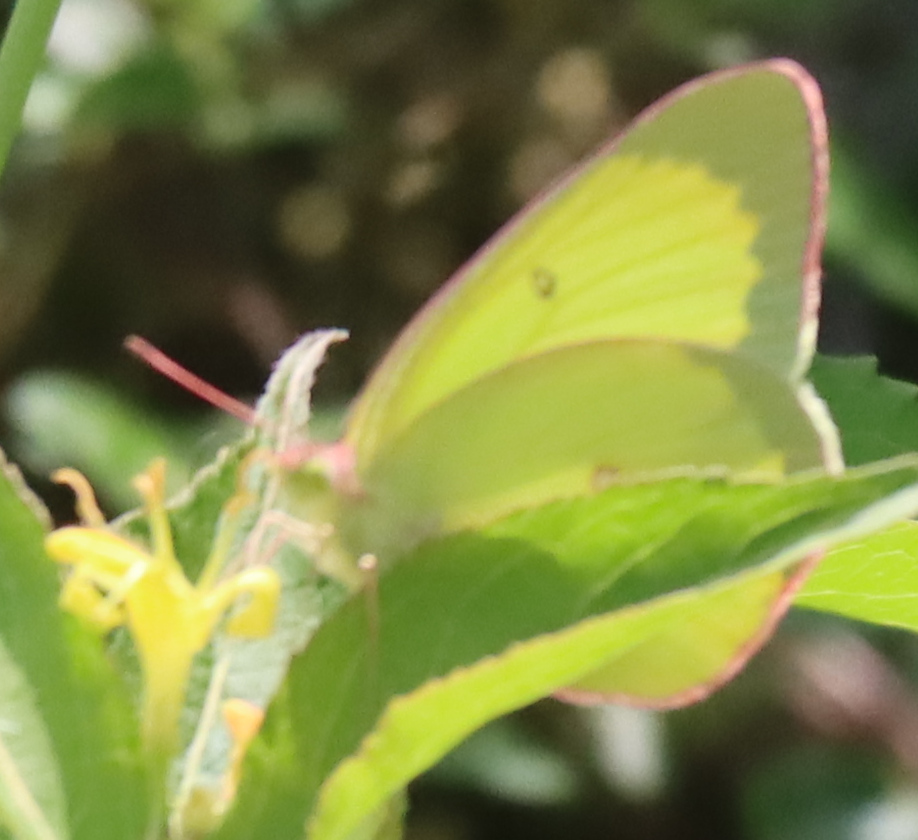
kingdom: Animalia
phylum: Arthropoda
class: Insecta
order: Lepidoptera
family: Pieridae
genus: Colias
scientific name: Colias interior
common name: Pink-edged sulphur
